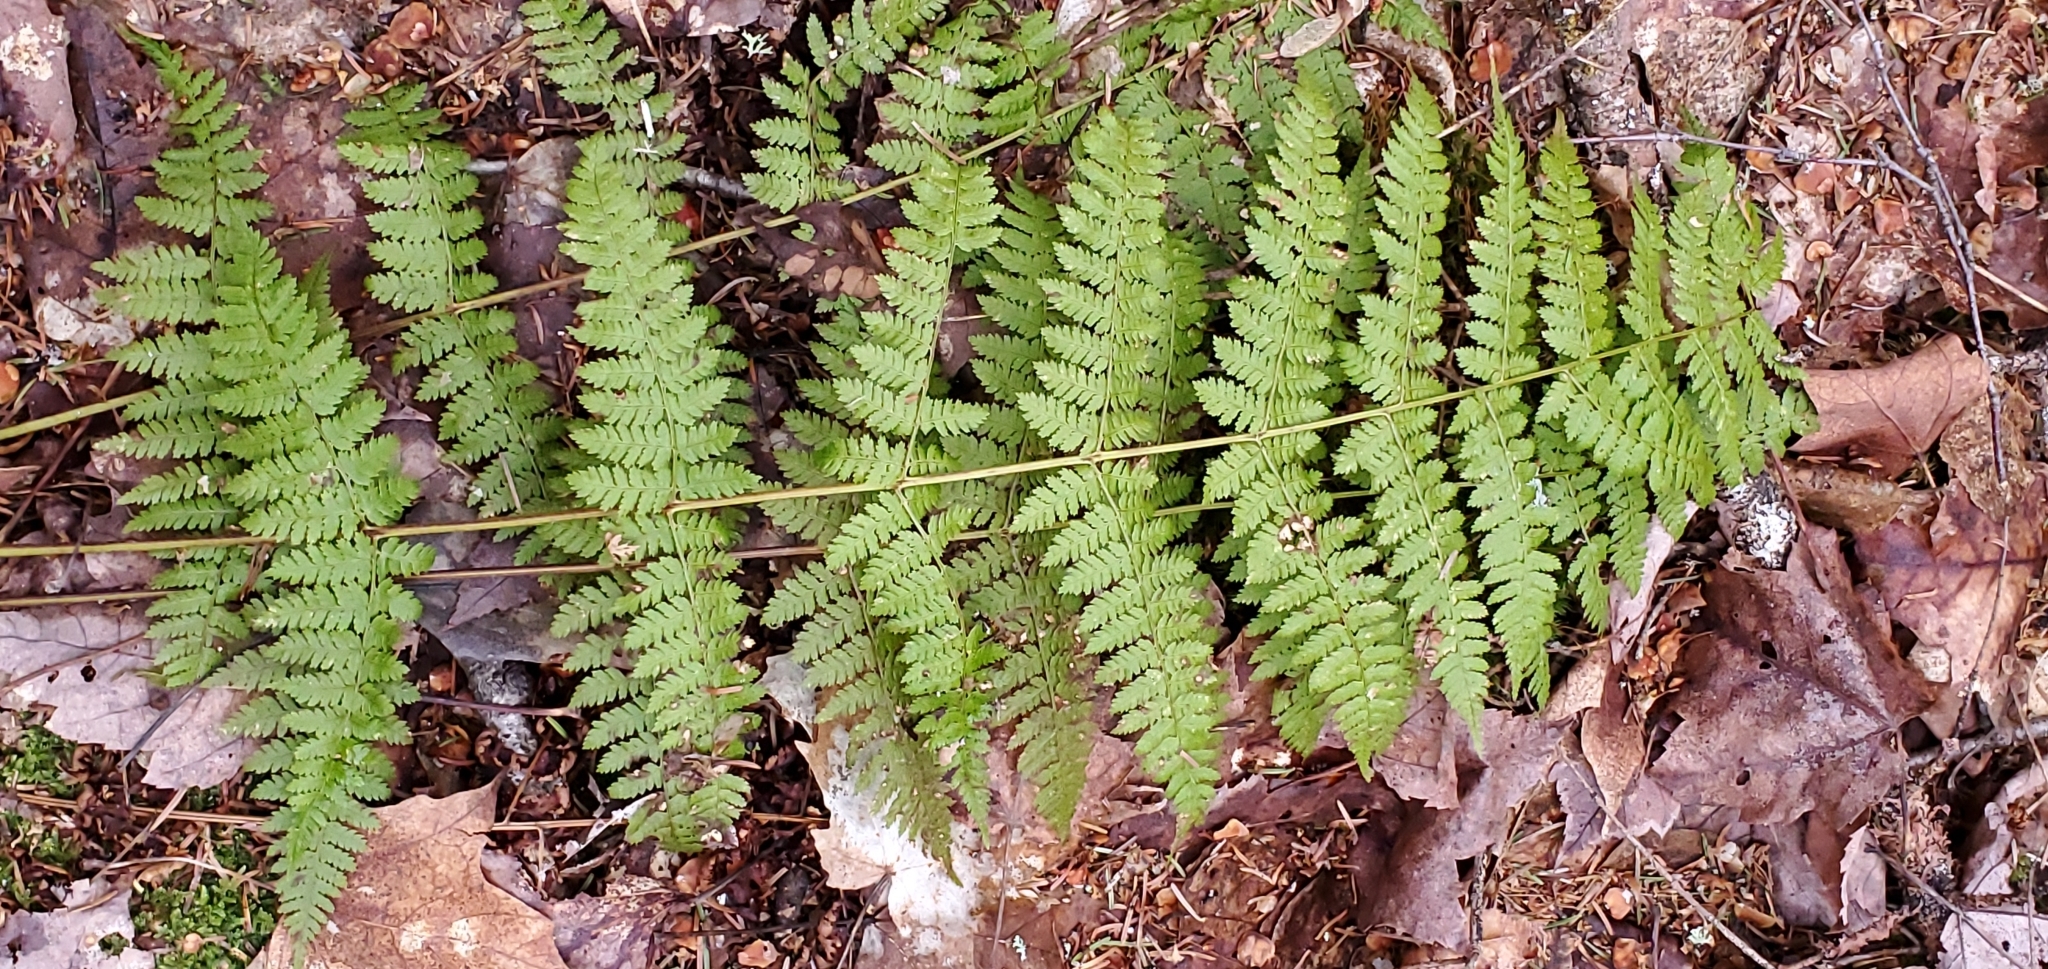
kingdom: Plantae
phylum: Tracheophyta
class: Polypodiopsida
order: Polypodiales
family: Dryopteridaceae
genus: Dryopteris
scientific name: Dryopteris intermedia
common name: Evergreen wood fern
